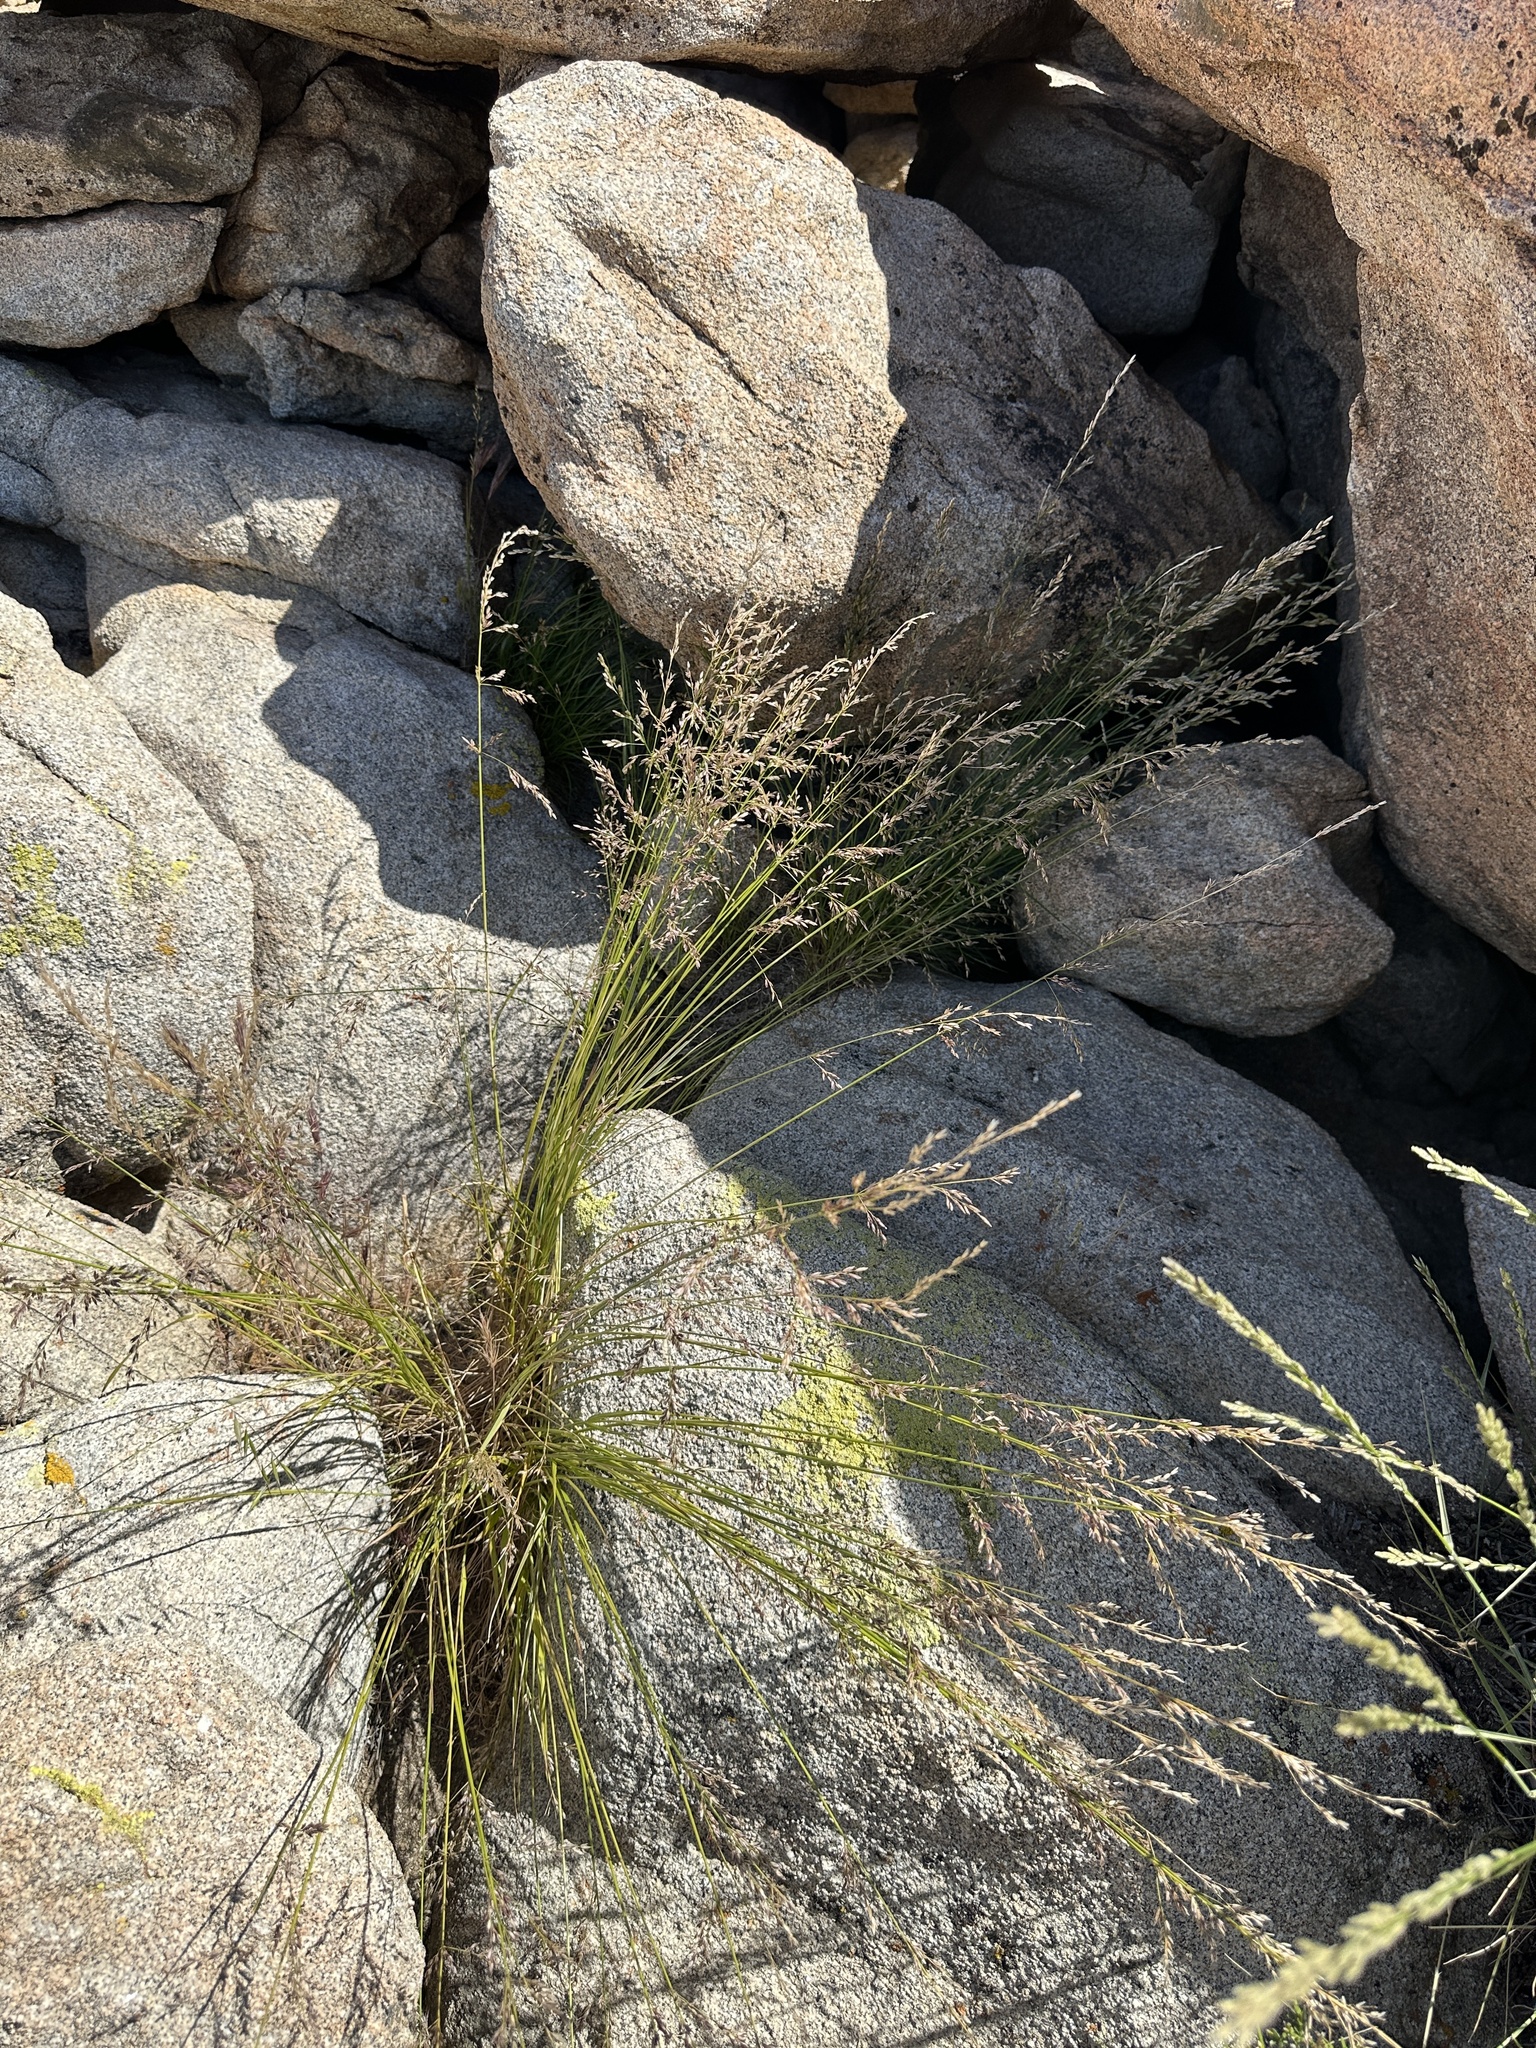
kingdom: Plantae
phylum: Tracheophyta
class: Liliopsida
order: Poales
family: Poaceae
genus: Melica
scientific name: Melica imperfecta
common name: California melic
